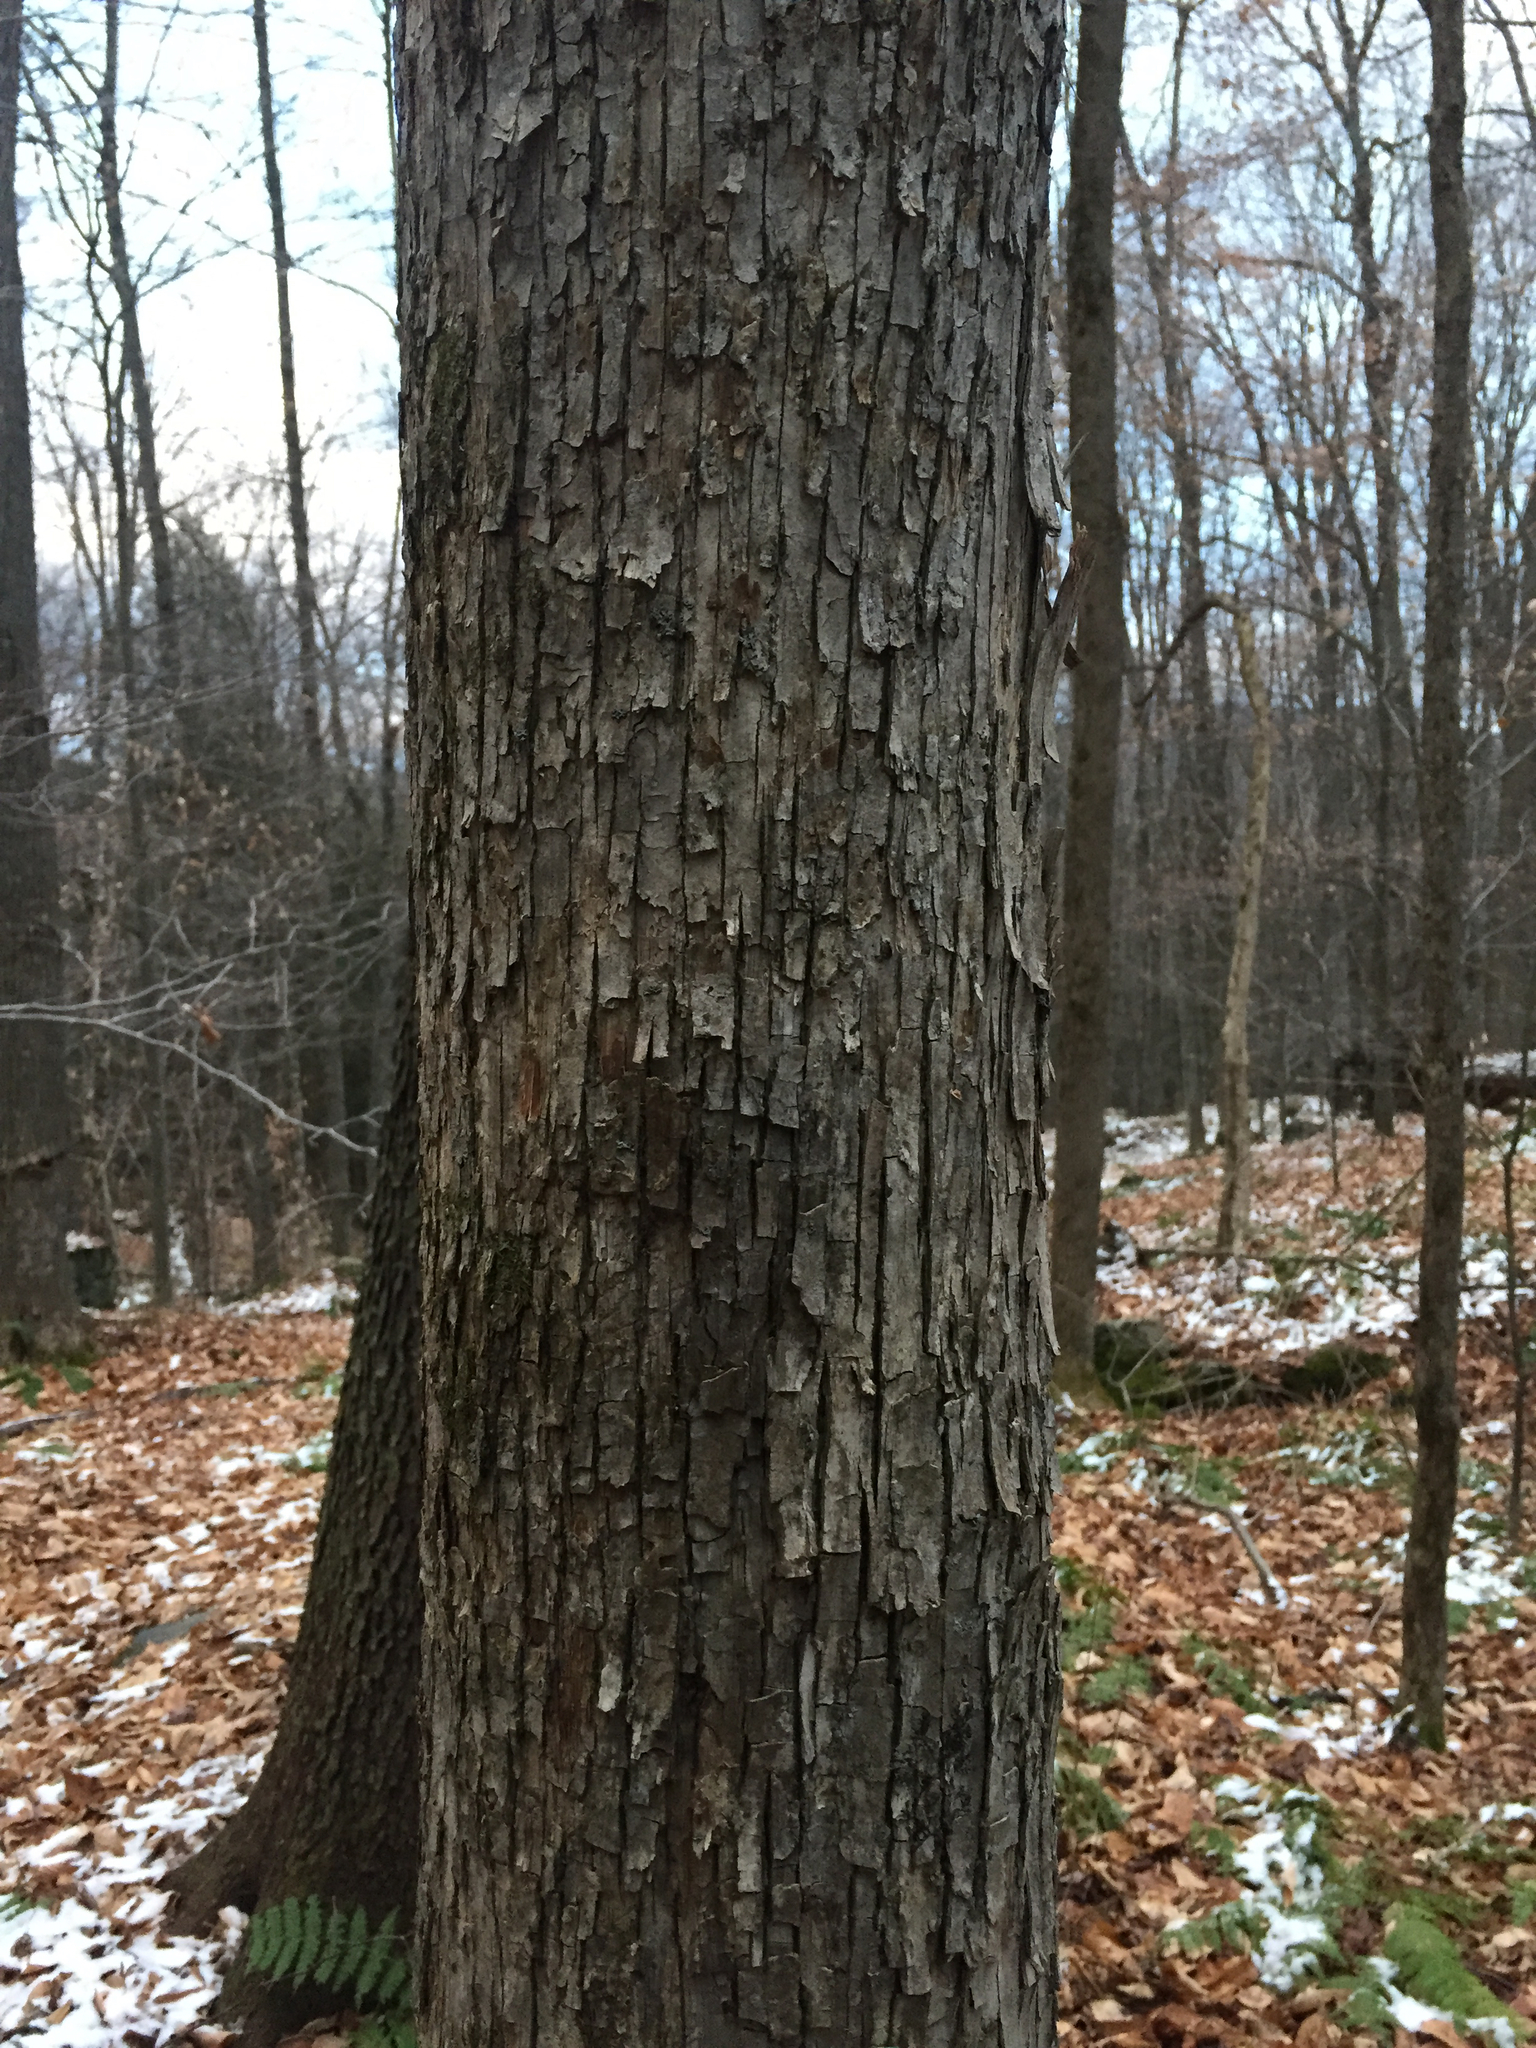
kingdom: Plantae
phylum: Tracheophyta
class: Magnoliopsida
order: Fagales
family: Betulaceae
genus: Ostrya
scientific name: Ostrya virginiana
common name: Ironwood
